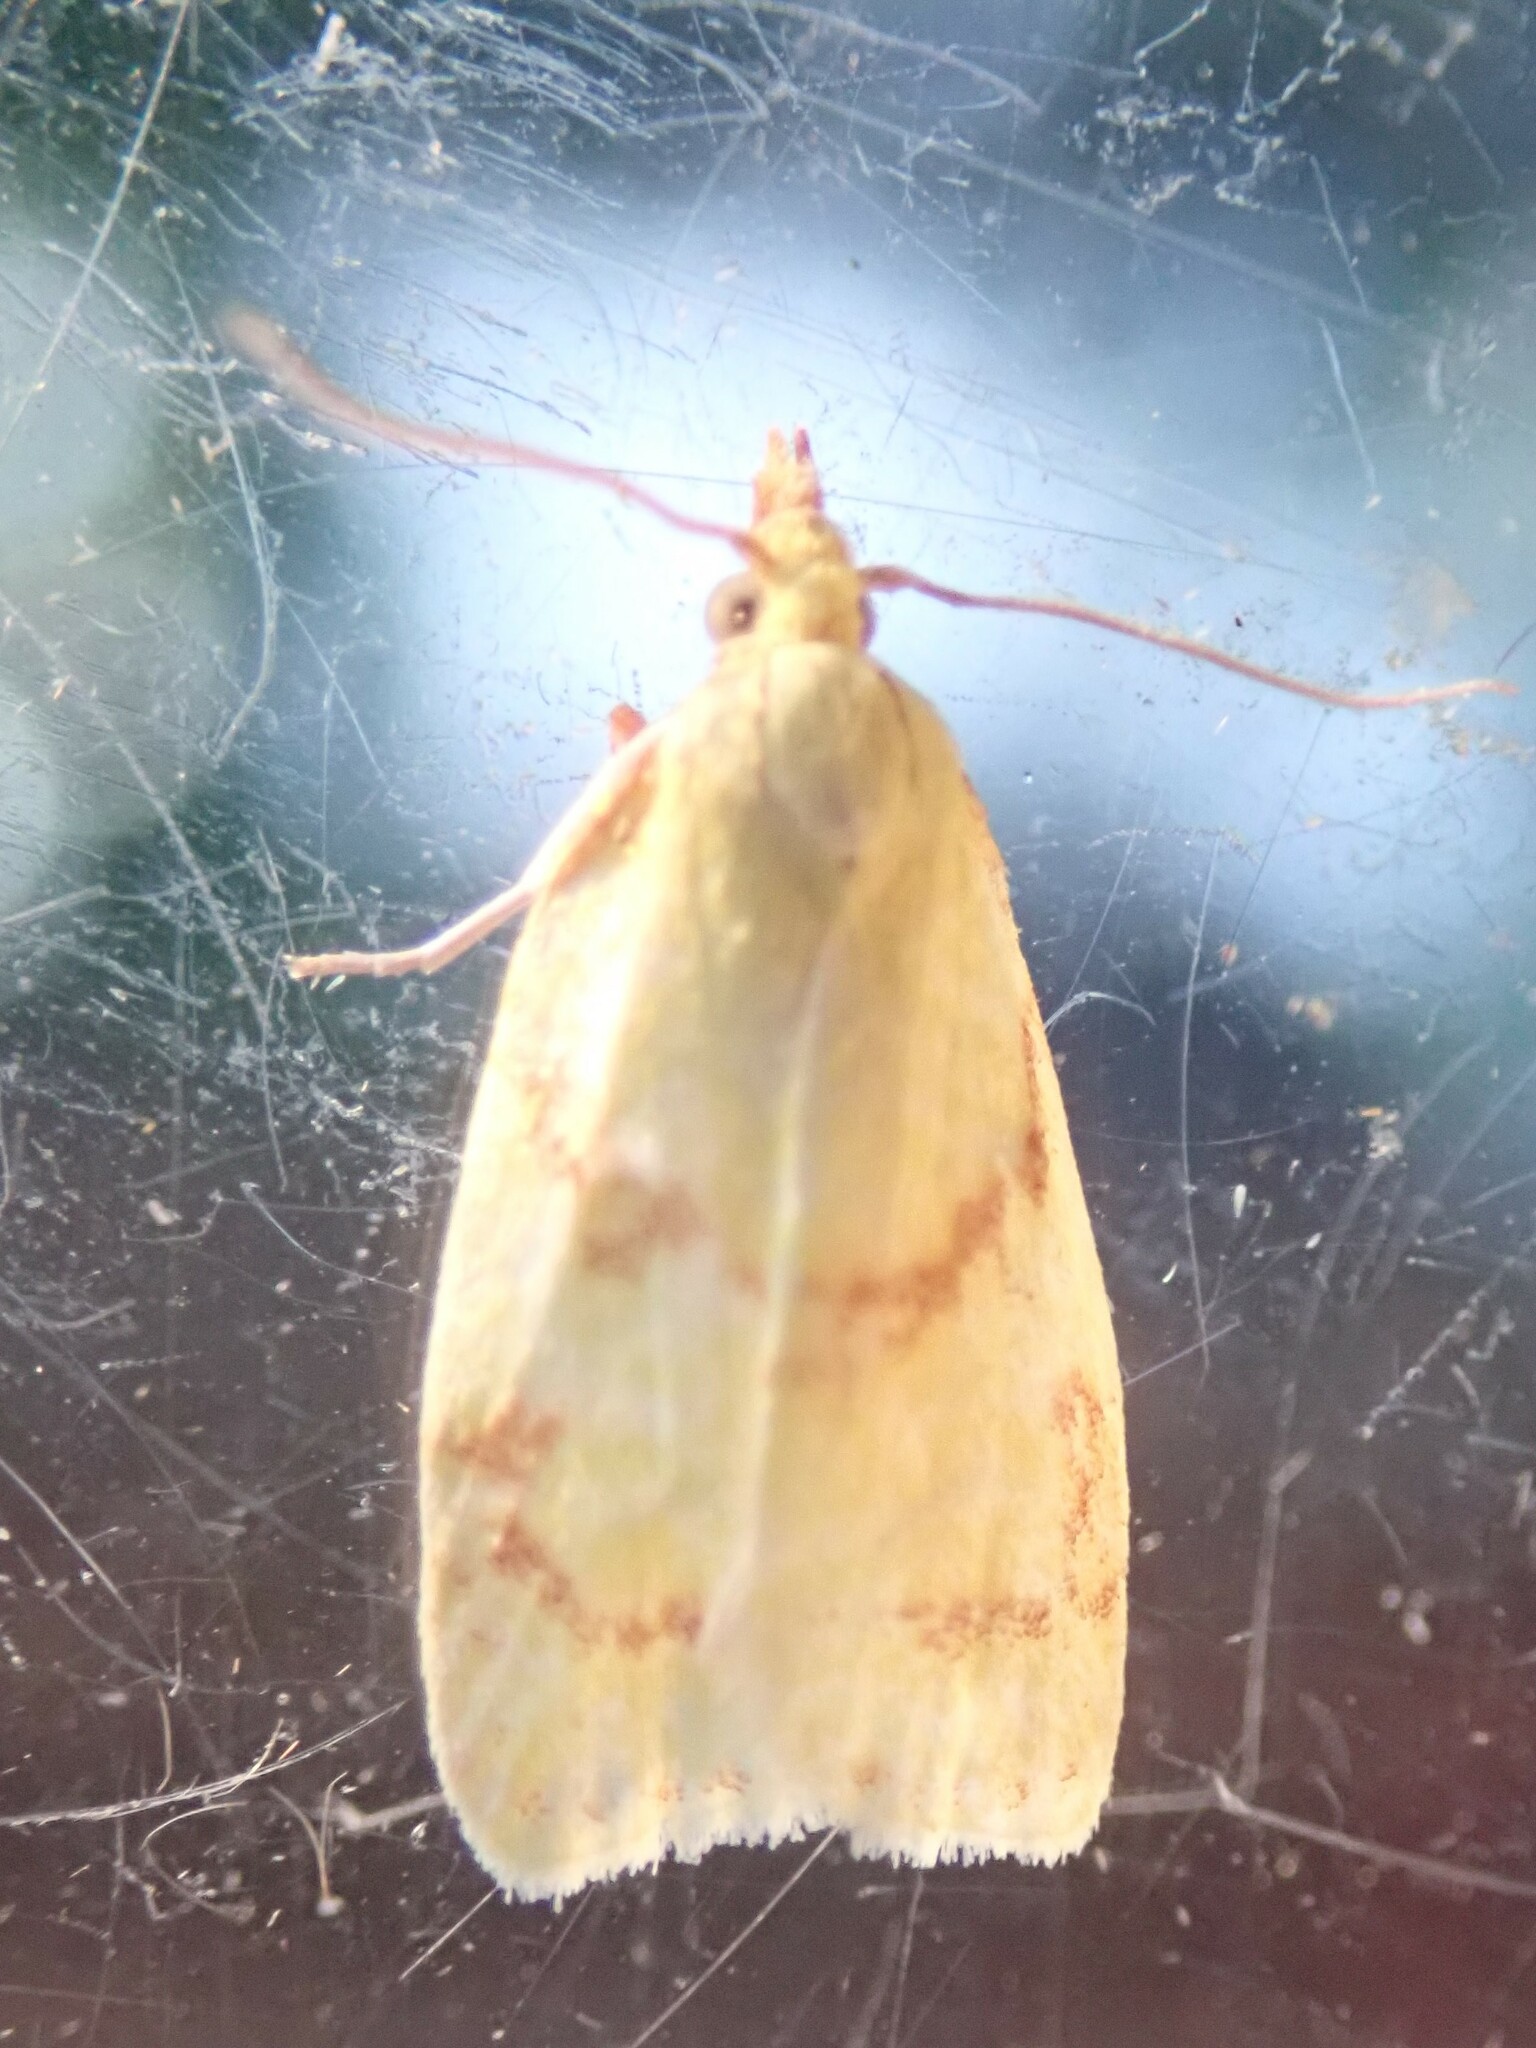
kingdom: Animalia
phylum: Arthropoda
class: Insecta
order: Lepidoptera
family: Tortricidae
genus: Cenopis
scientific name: Cenopis pettitana
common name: Maple-basswood leafroller moth
